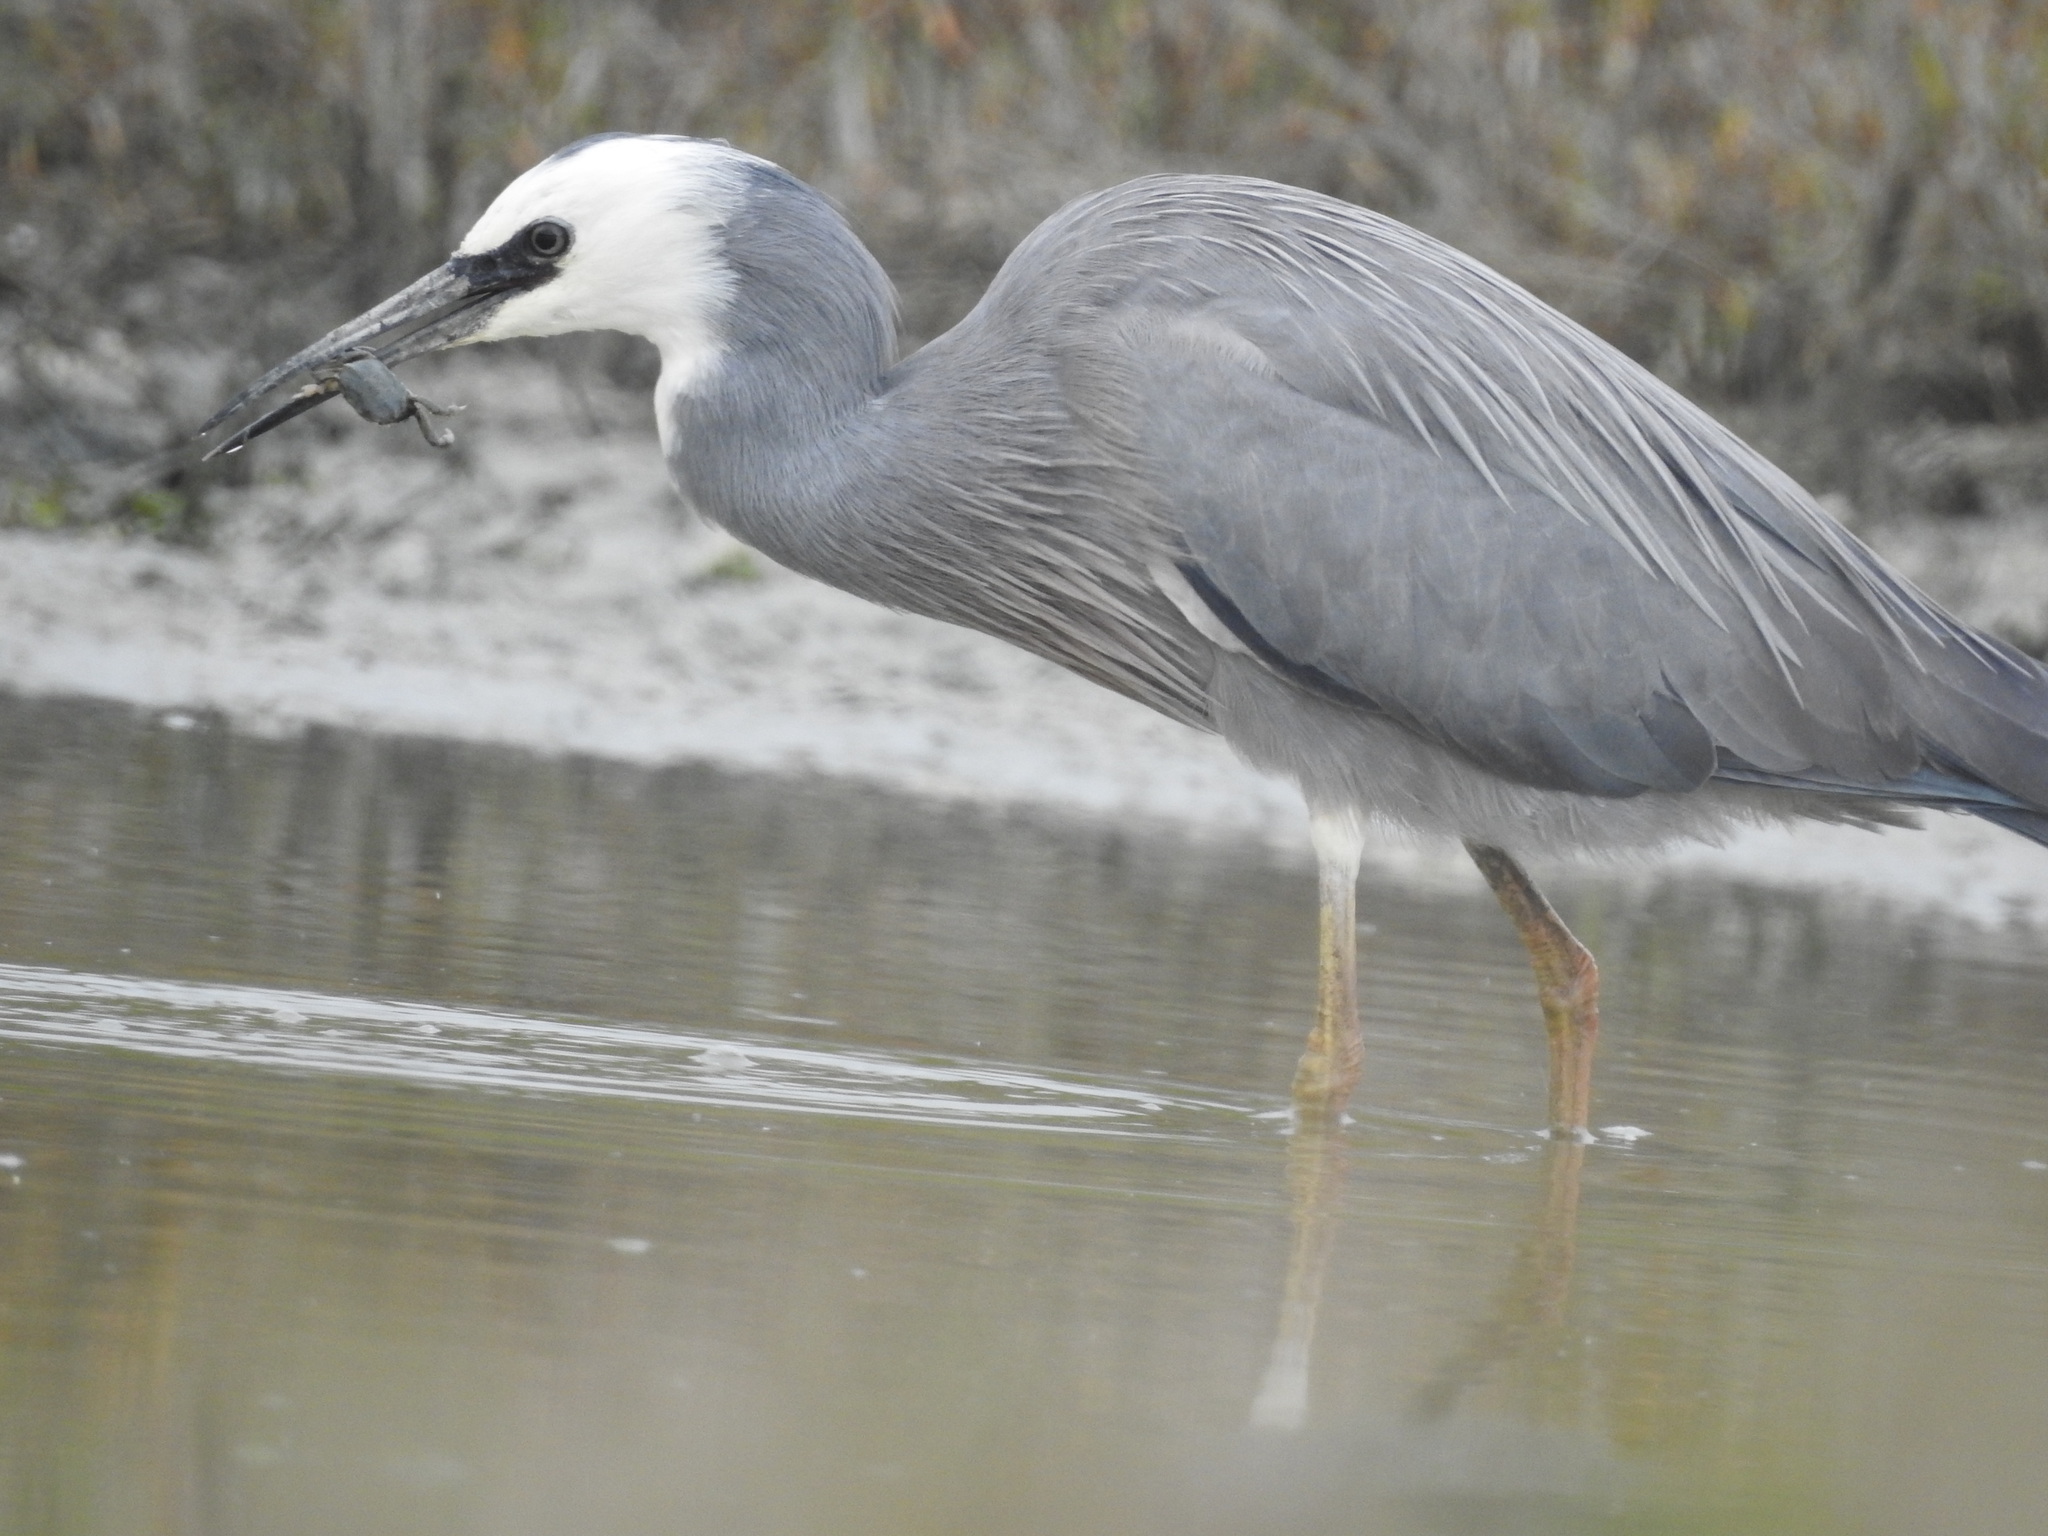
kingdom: Animalia
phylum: Chordata
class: Aves
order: Pelecaniformes
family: Ardeidae
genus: Egretta
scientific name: Egretta novaehollandiae
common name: White-faced heron
